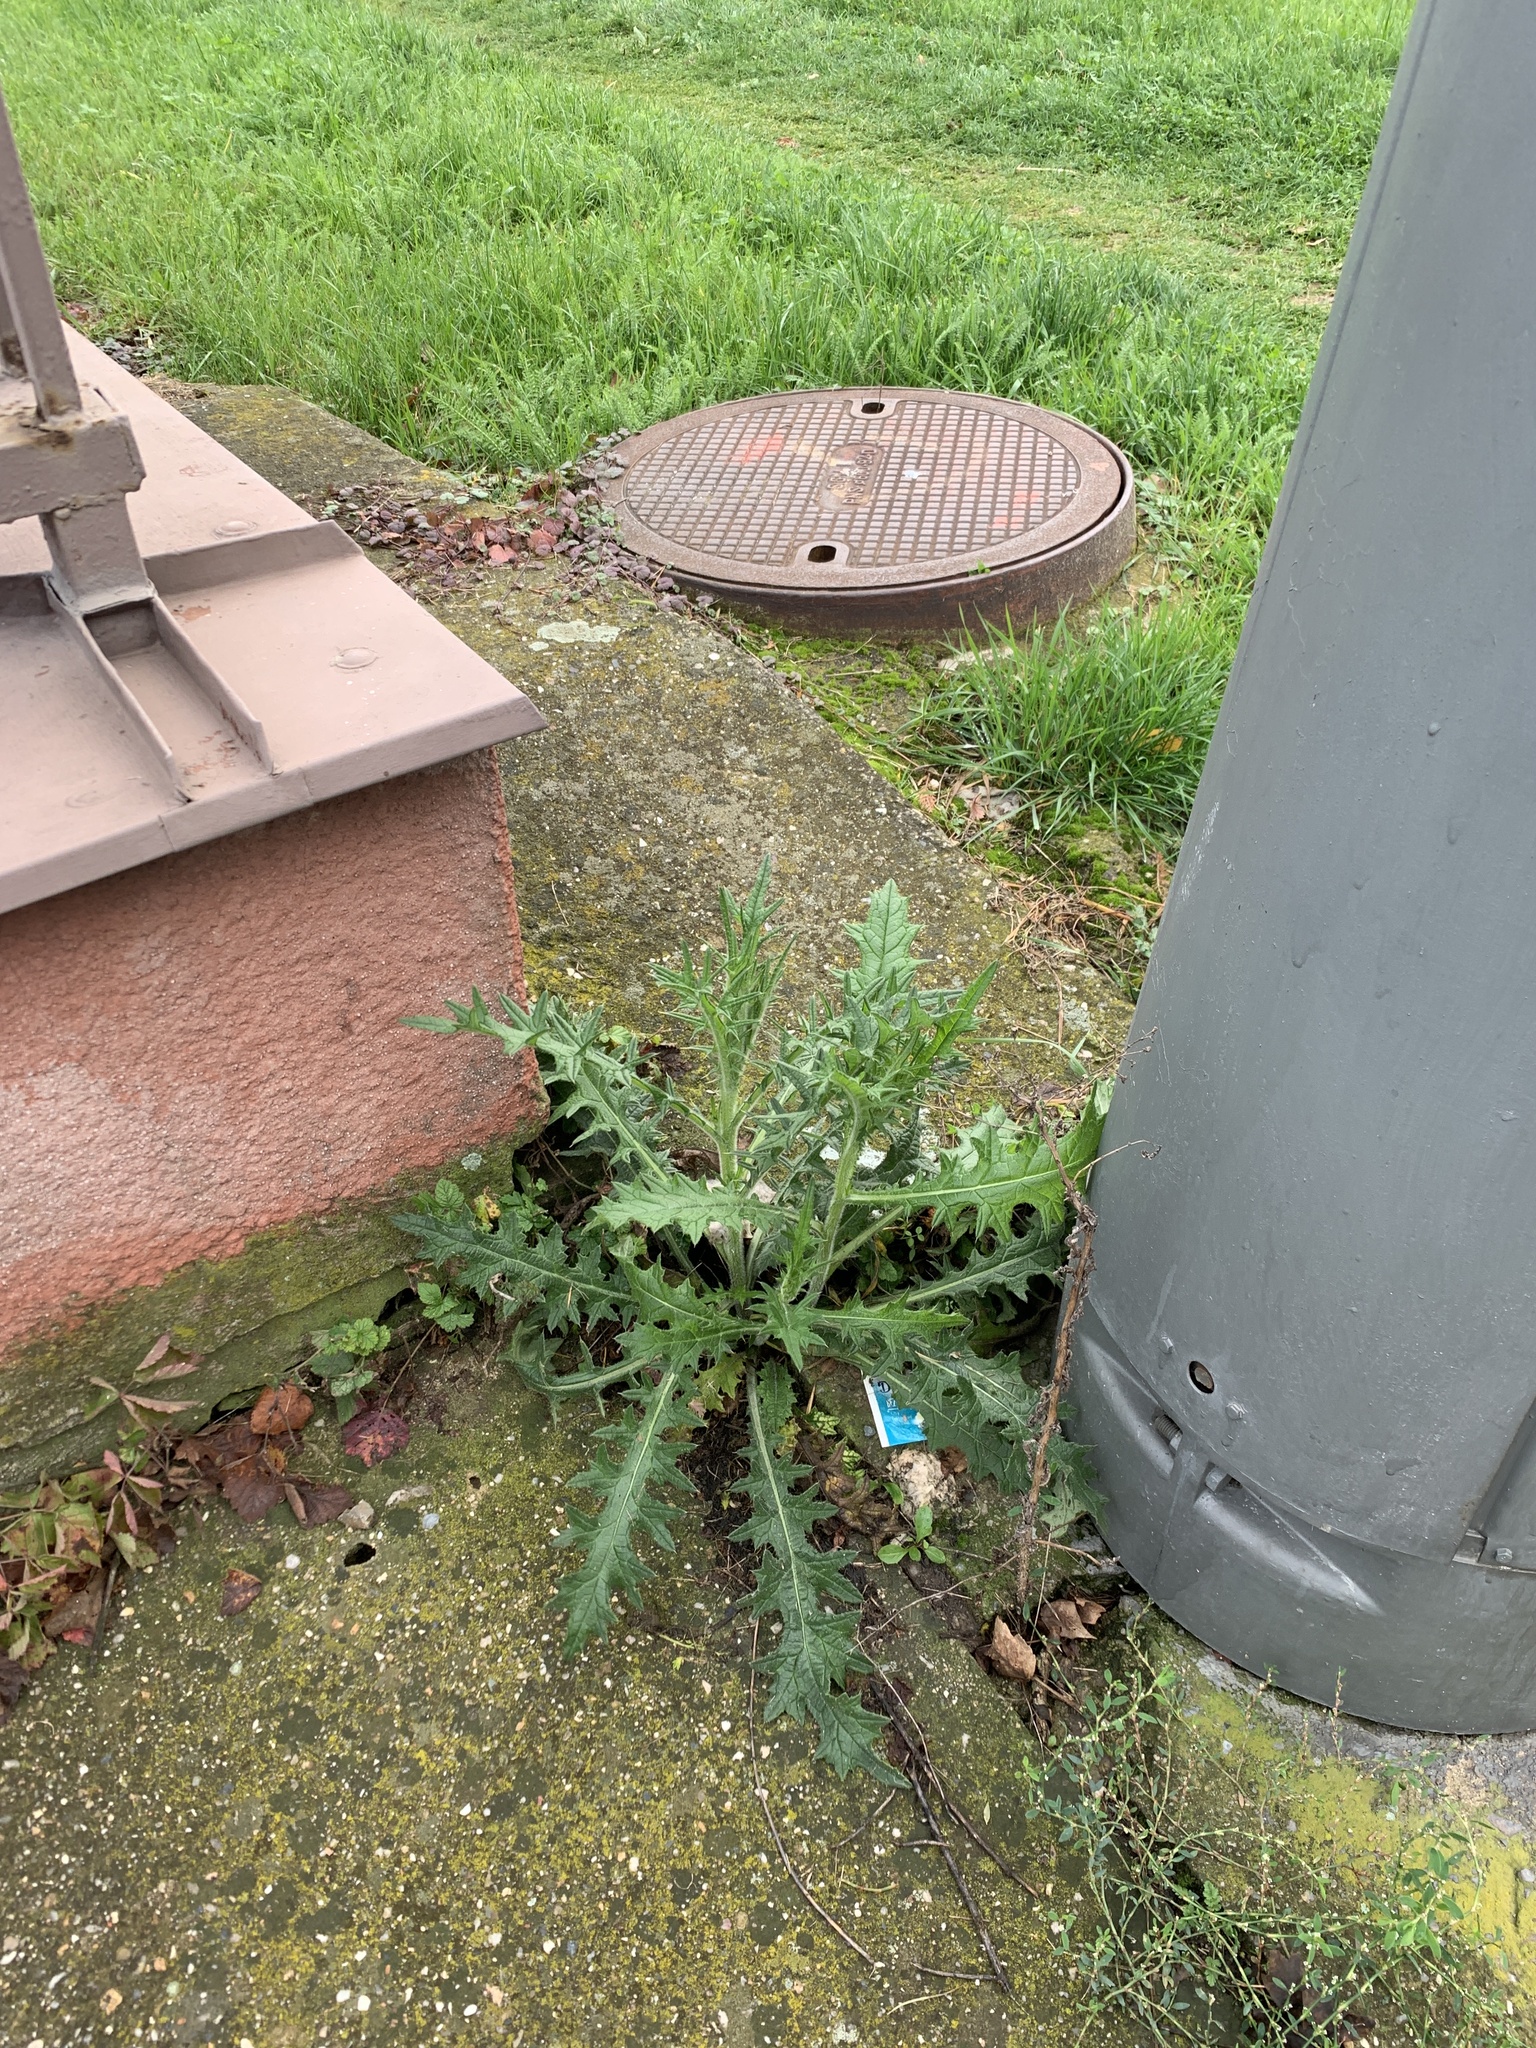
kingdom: Plantae
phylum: Tracheophyta
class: Magnoliopsida
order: Asterales
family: Asteraceae
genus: Cirsium
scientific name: Cirsium vulgare
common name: Bull thistle
